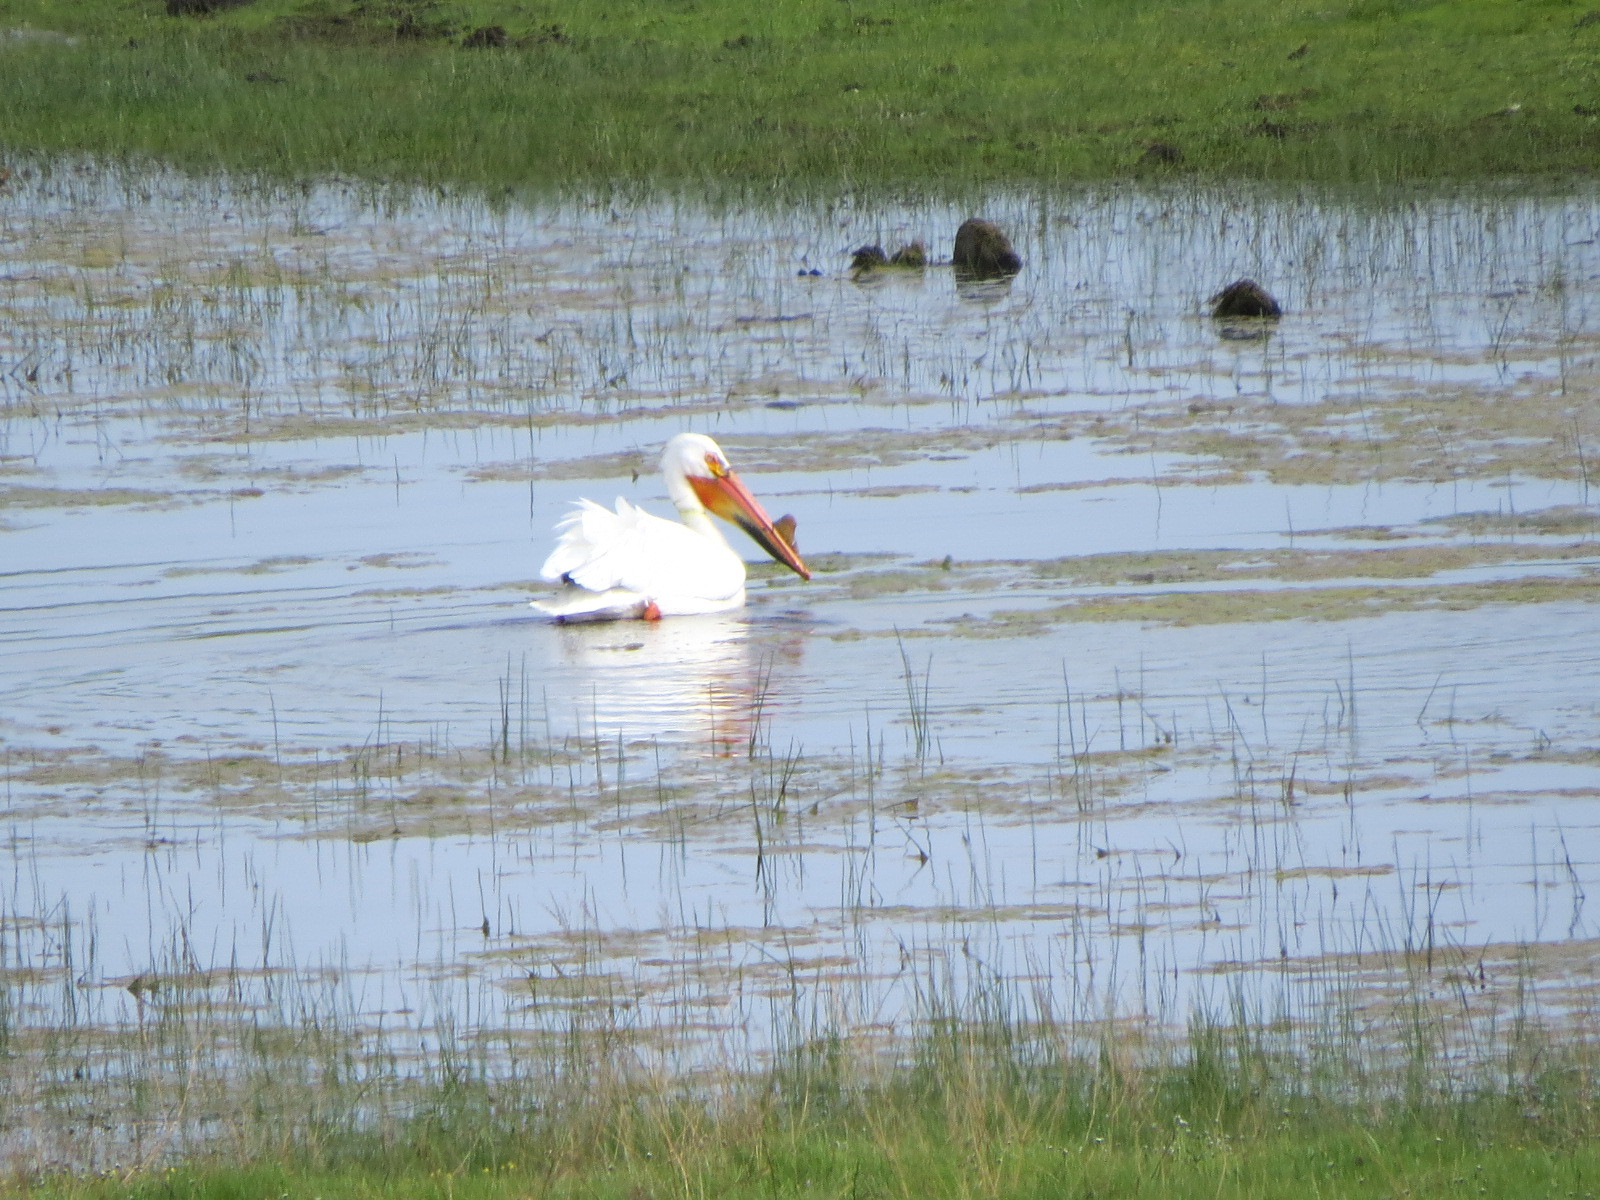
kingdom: Animalia
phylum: Chordata
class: Aves
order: Pelecaniformes
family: Pelecanidae
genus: Pelecanus
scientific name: Pelecanus erythrorhynchos
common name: American white pelican
